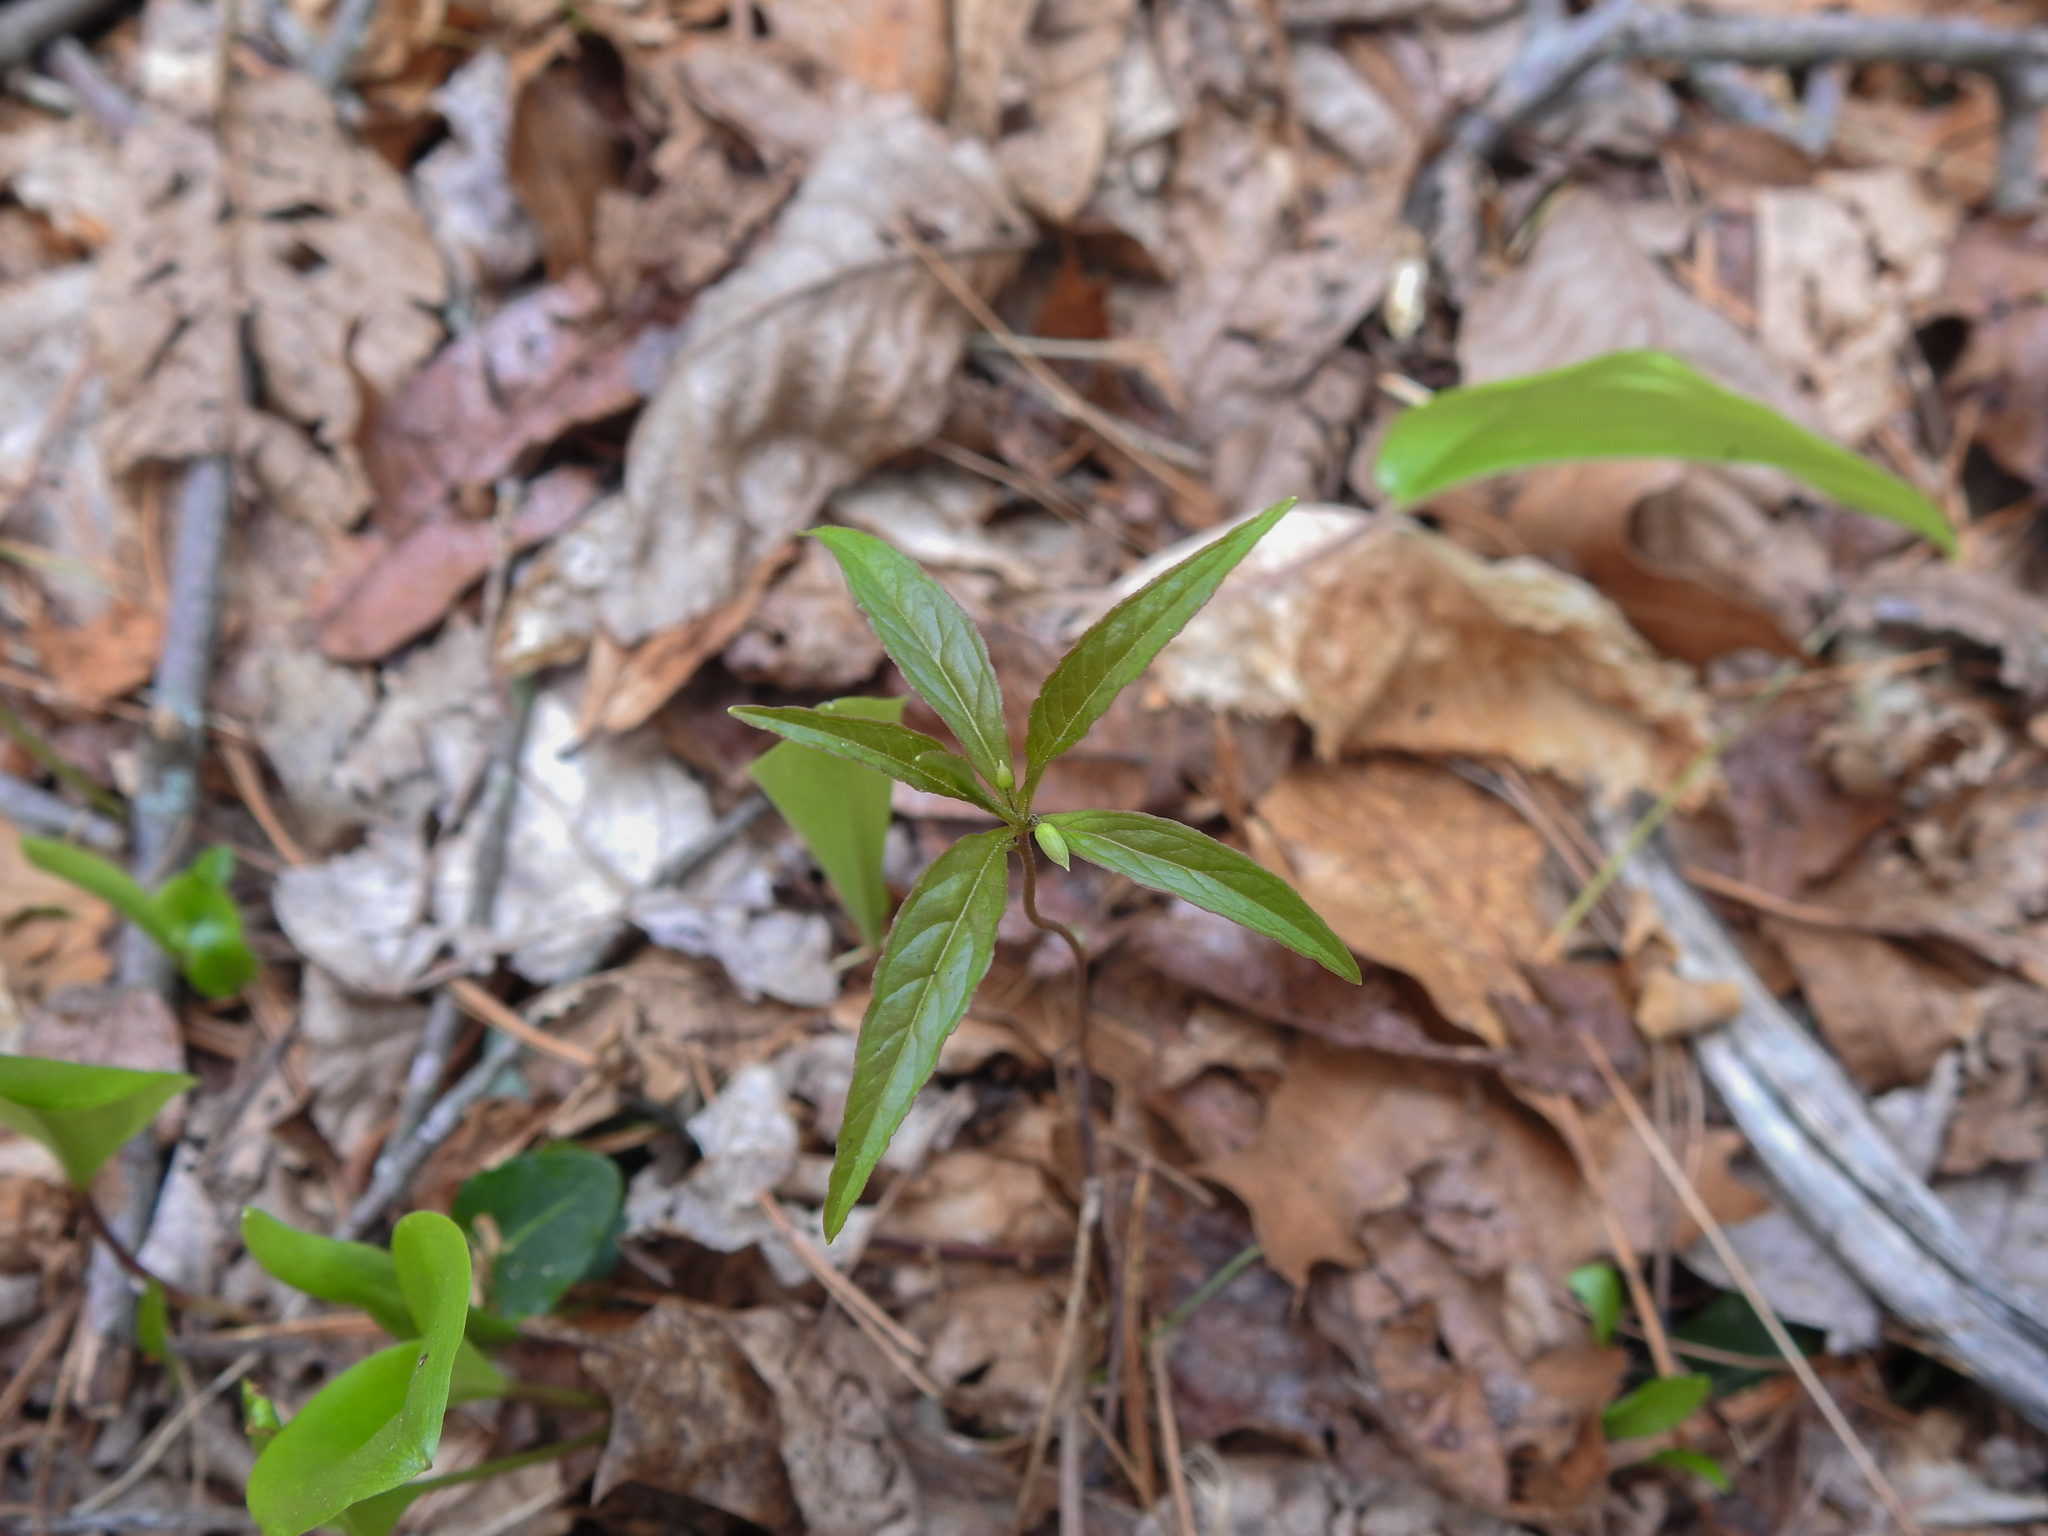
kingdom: Plantae
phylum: Tracheophyta
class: Magnoliopsida
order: Ericales
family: Primulaceae
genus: Lysimachia
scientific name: Lysimachia borealis
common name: American starflower
